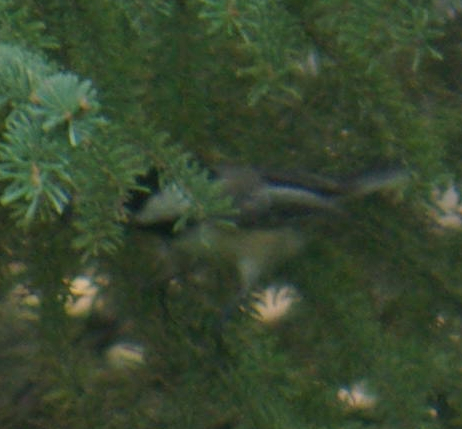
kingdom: Animalia
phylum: Chordata
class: Aves
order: Passeriformes
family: Paridae
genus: Poecile
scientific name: Poecile atricapillus
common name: Black-capped chickadee
